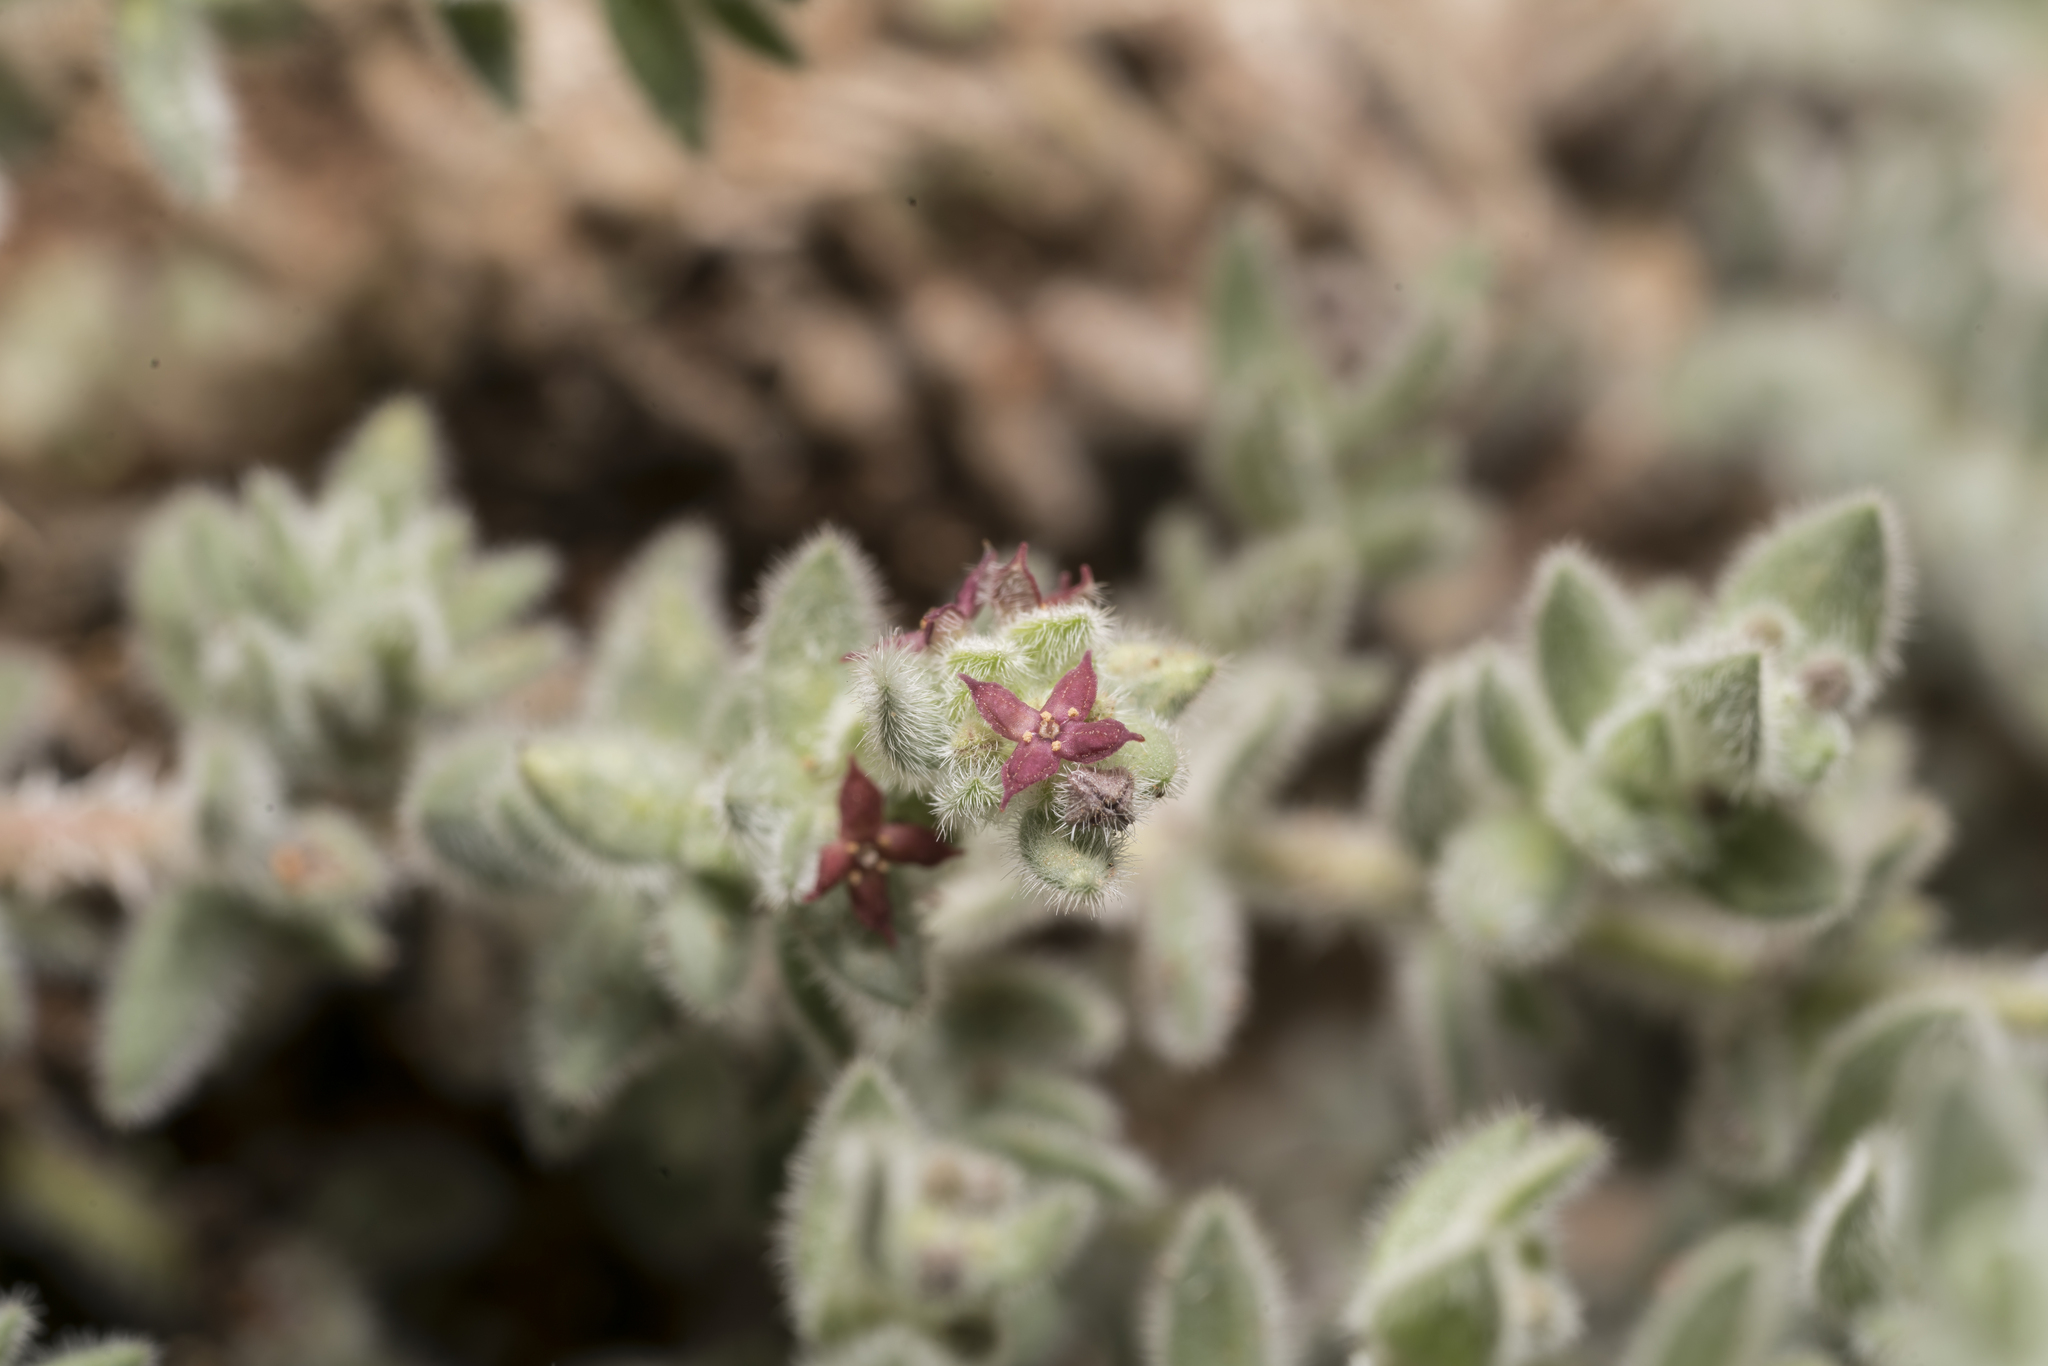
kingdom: Plantae
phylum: Tracheophyta
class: Magnoliopsida
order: Gentianales
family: Rubiaceae
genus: Galium
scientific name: Galium canum
